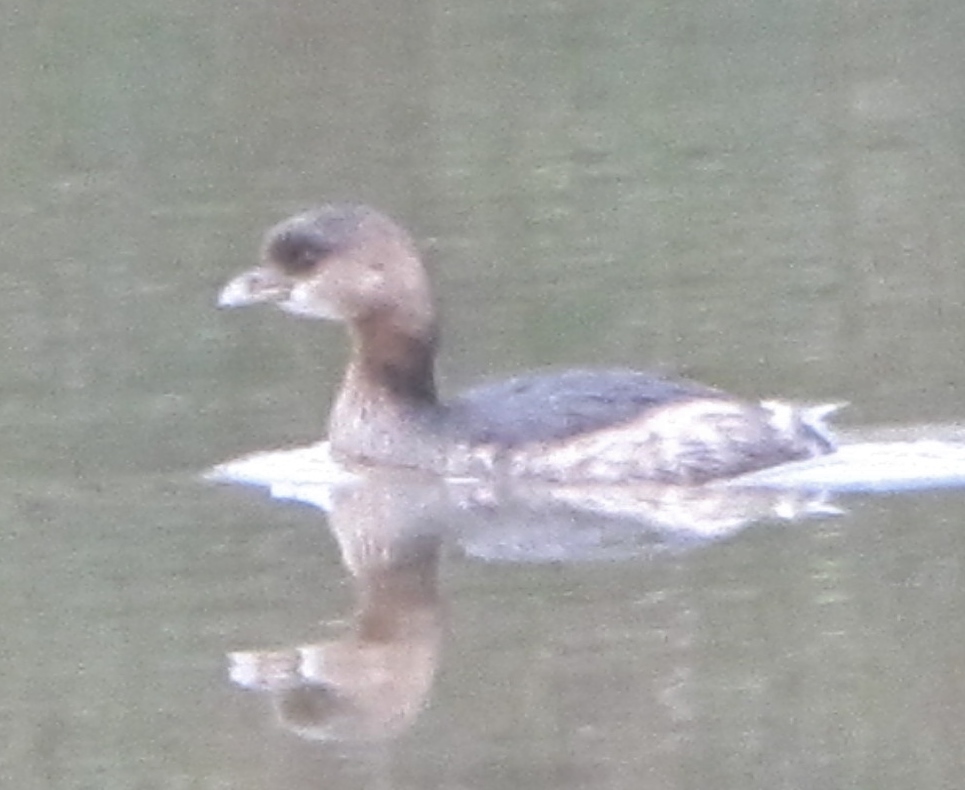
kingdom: Animalia
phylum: Chordata
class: Aves
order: Podicipediformes
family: Podicipedidae
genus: Podilymbus
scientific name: Podilymbus podiceps
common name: Pied-billed grebe
